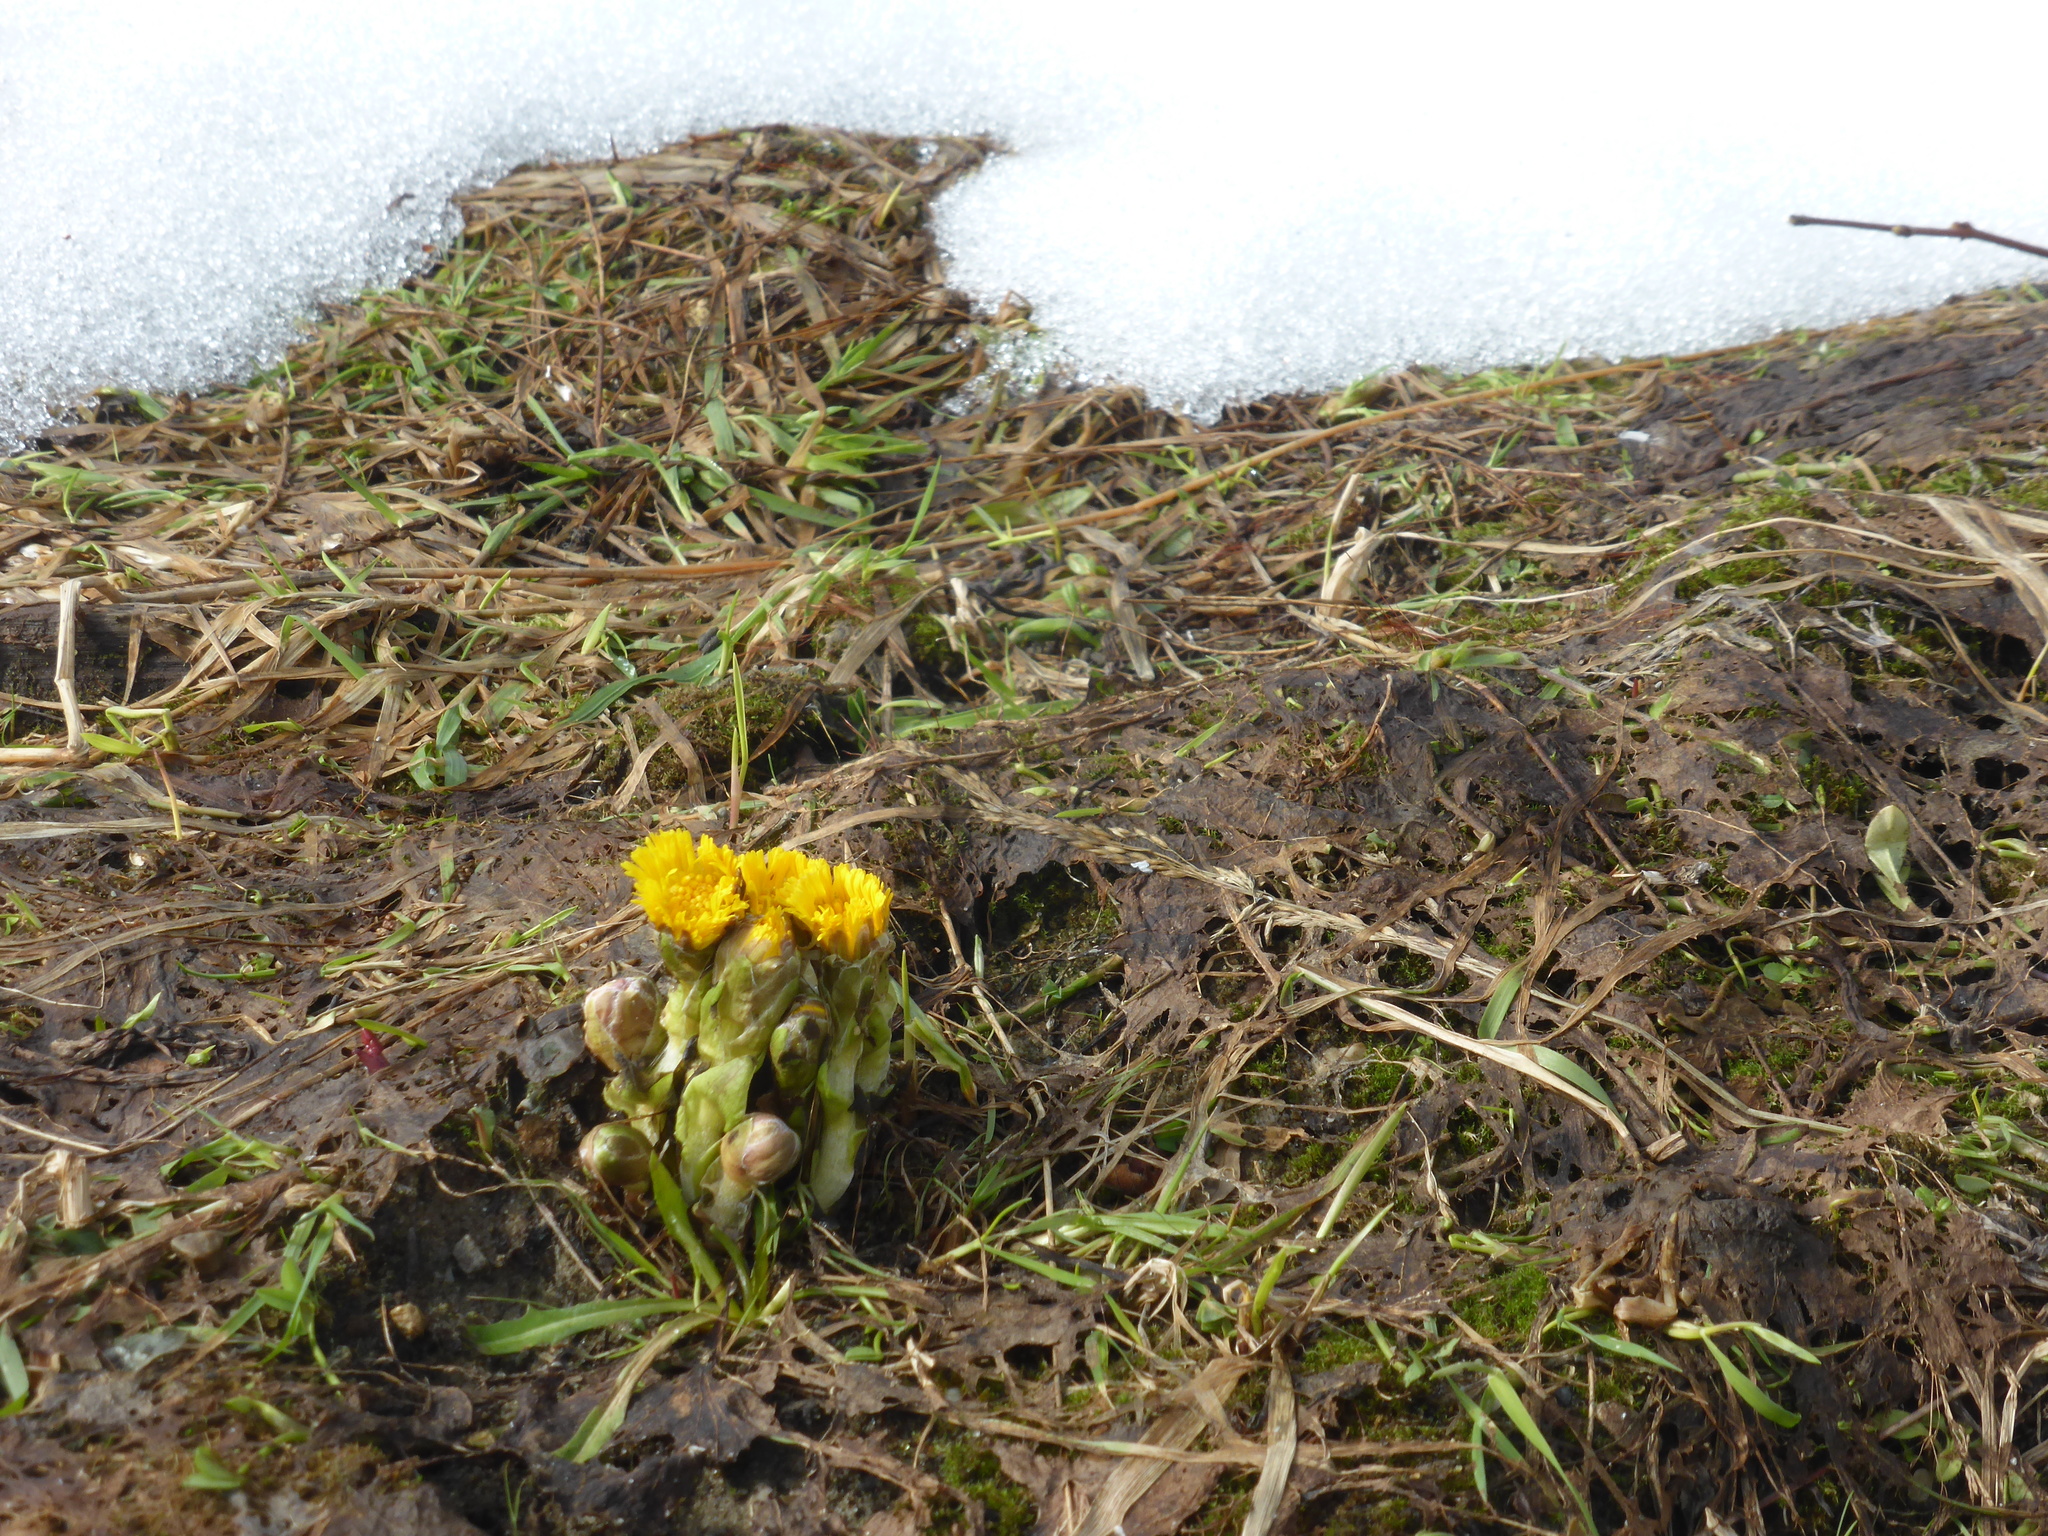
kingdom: Plantae
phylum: Tracheophyta
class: Magnoliopsida
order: Asterales
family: Asteraceae
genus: Tussilago
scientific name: Tussilago farfara
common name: Coltsfoot
